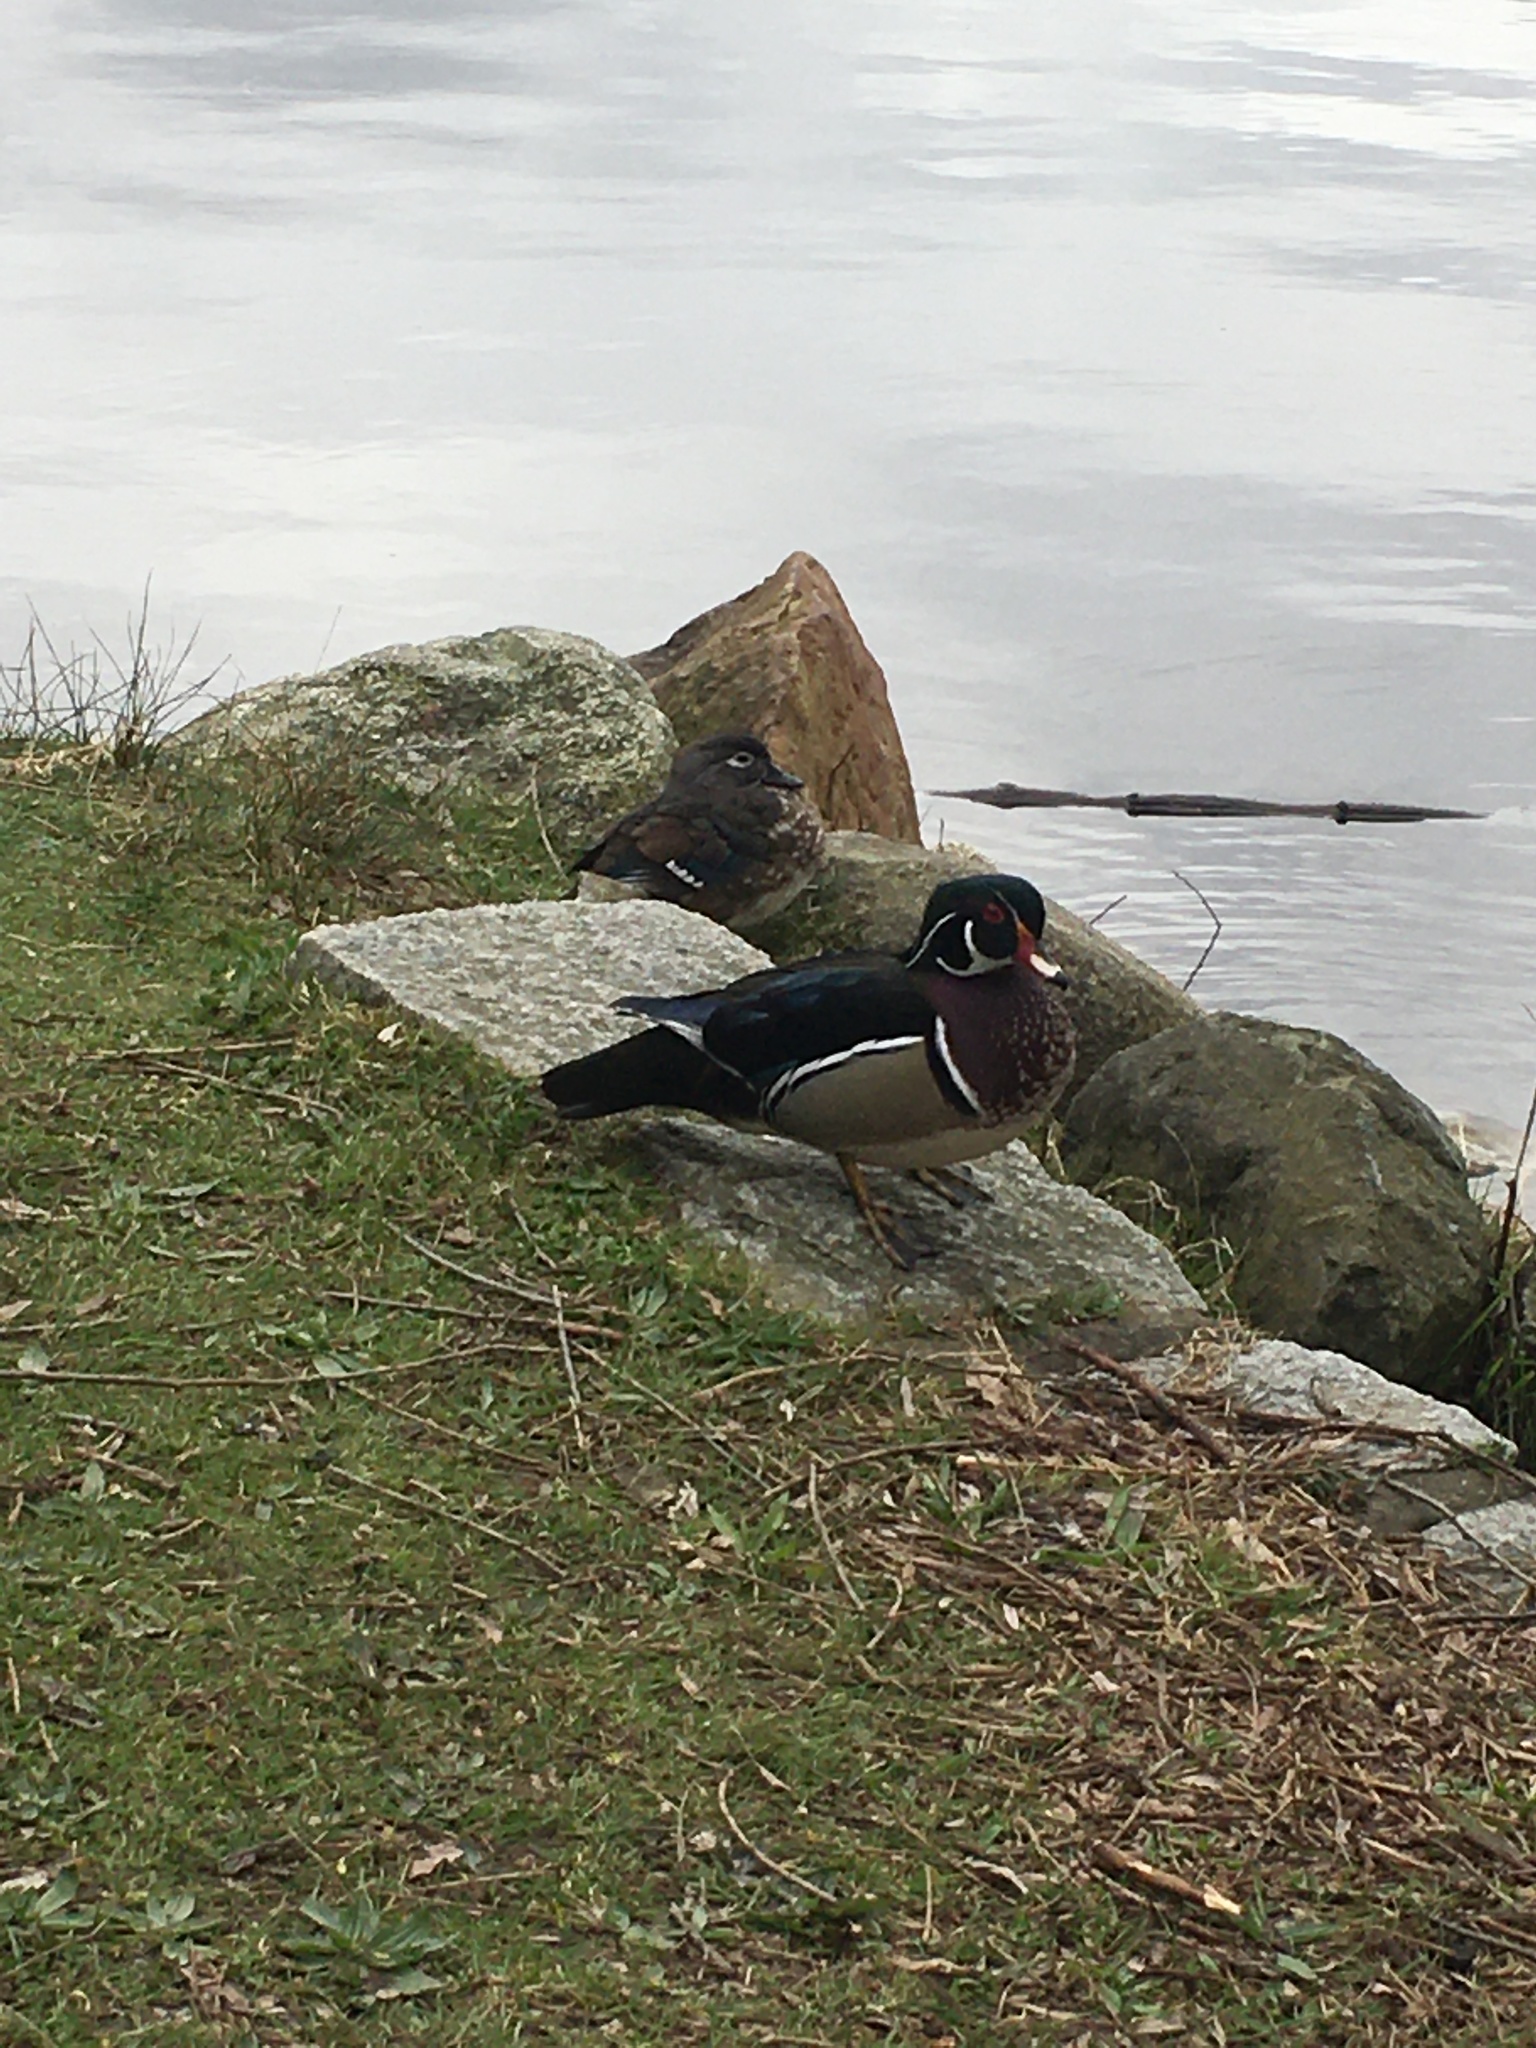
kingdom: Animalia
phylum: Chordata
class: Aves
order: Anseriformes
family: Anatidae
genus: Aix
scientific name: Aix sponsa
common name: Wood duck
